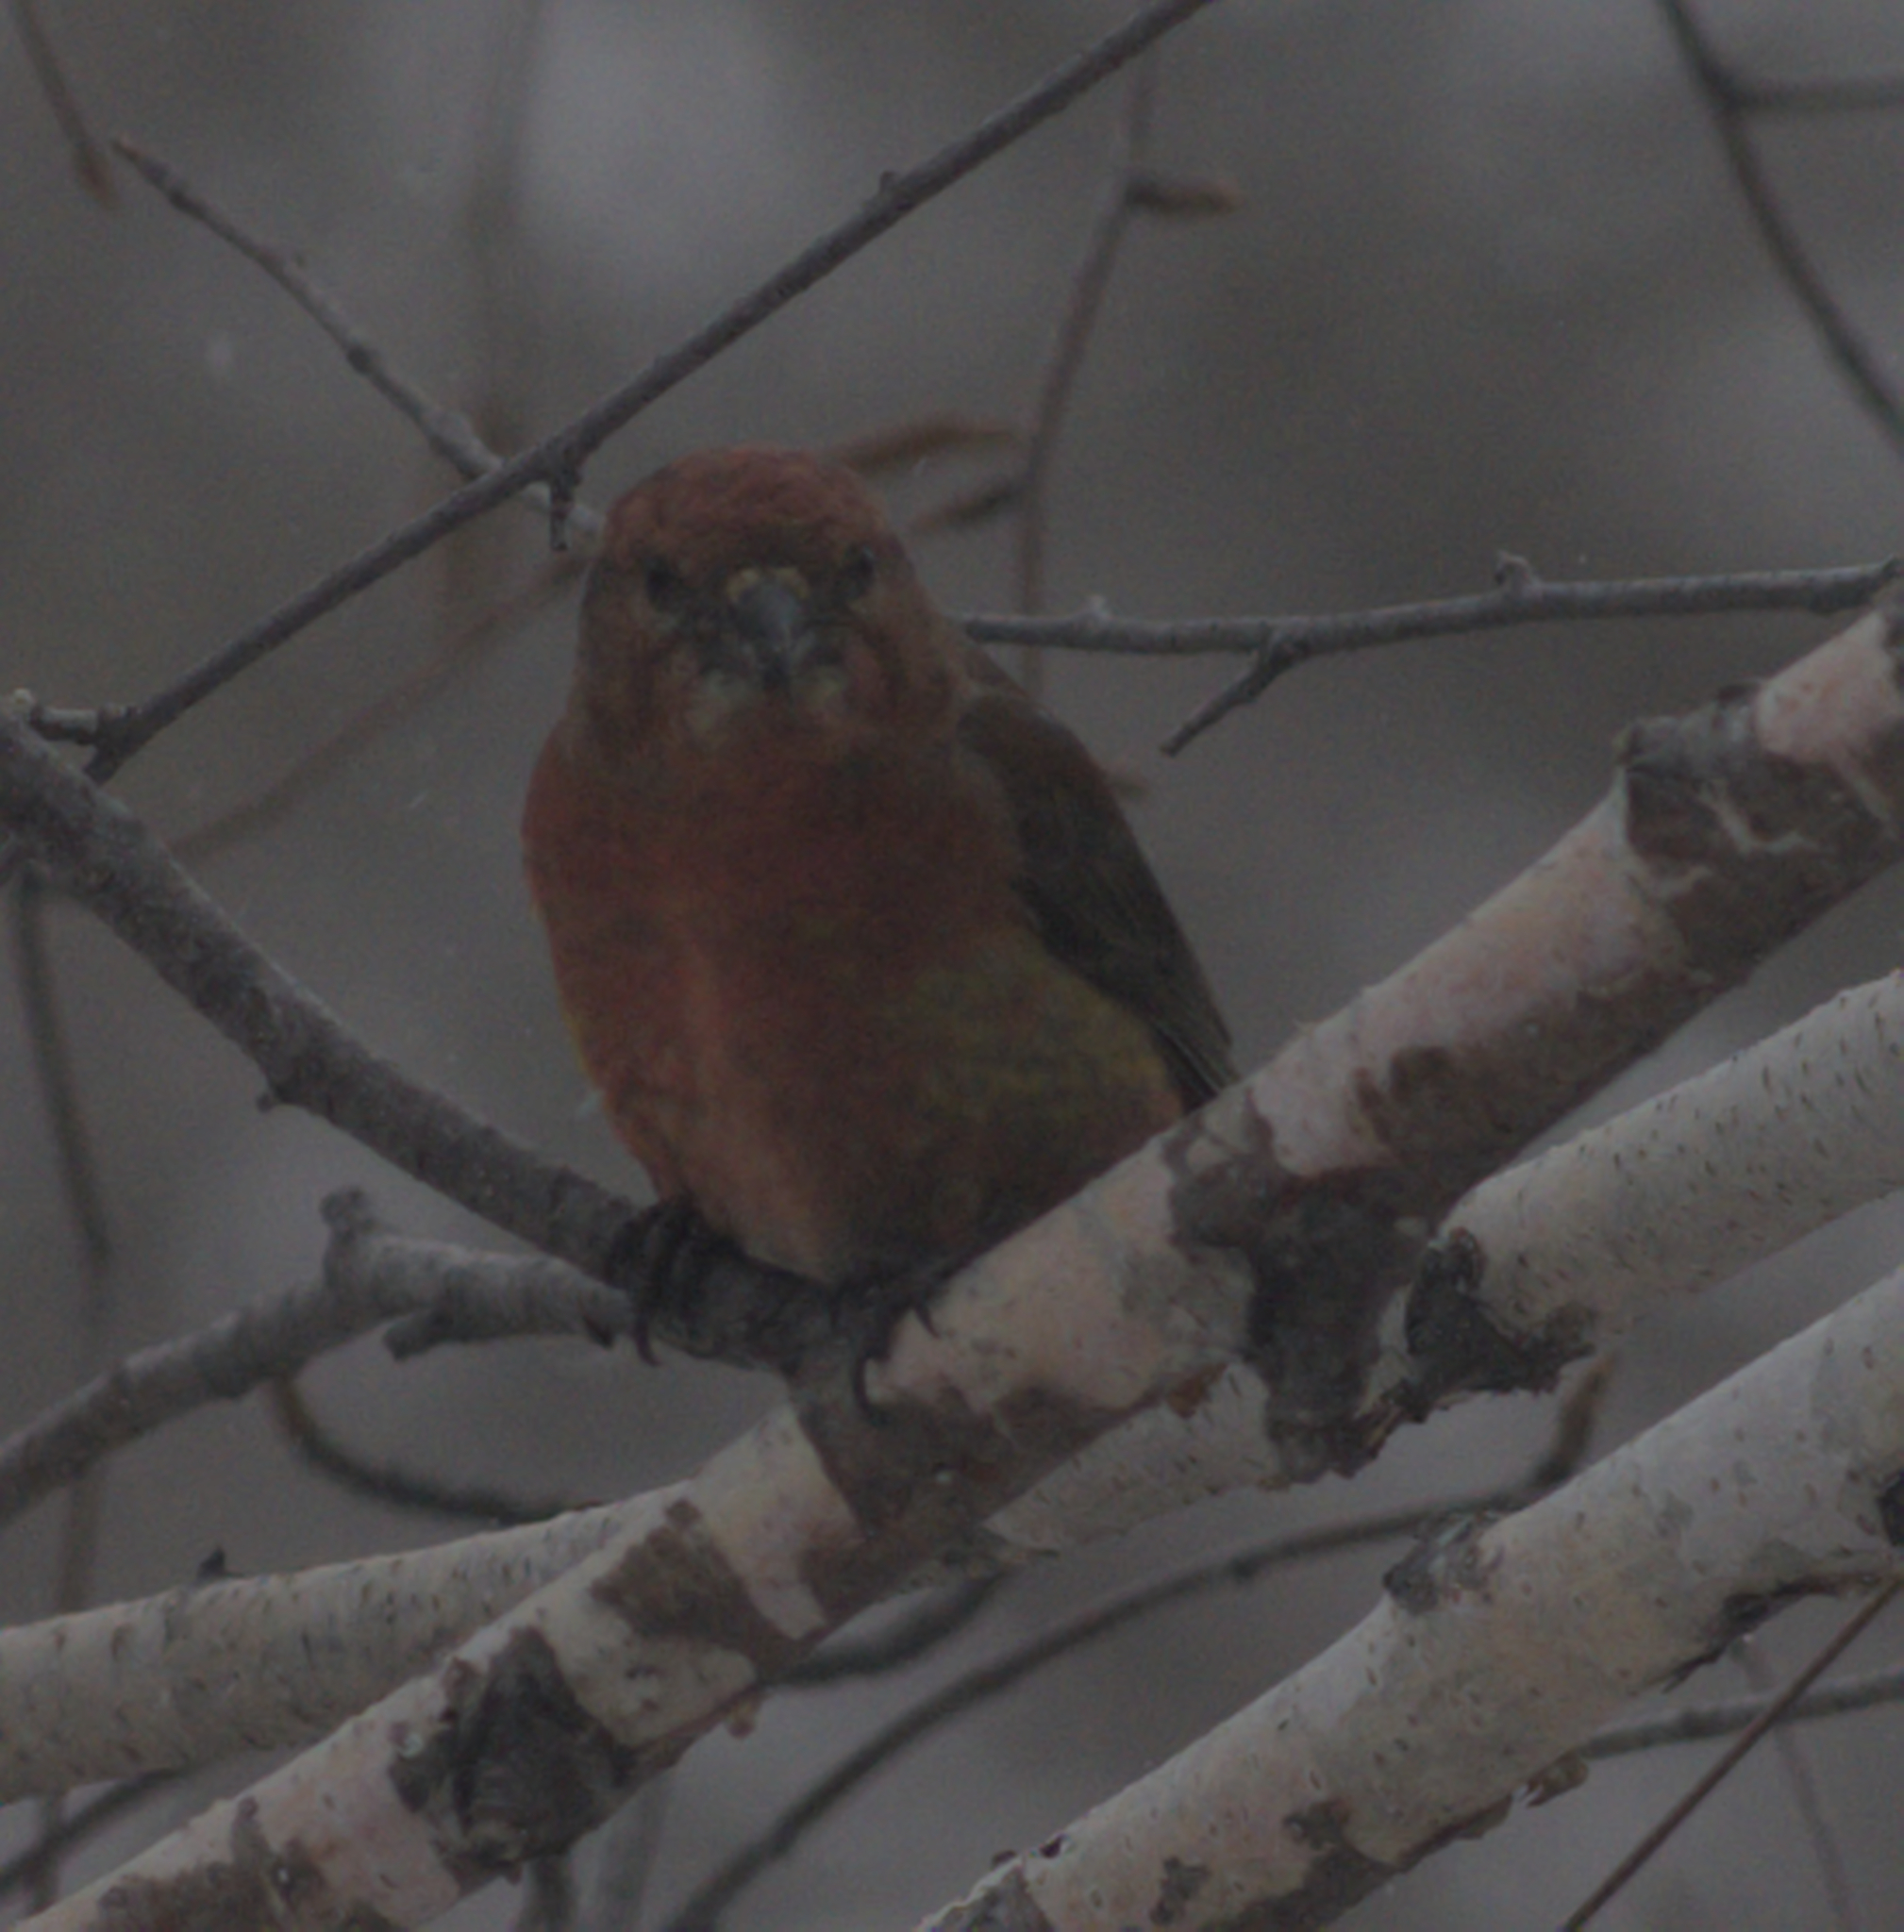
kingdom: Animalia
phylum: Chordata
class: Aves
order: Passeriformes
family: Fringillidae
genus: Loxia
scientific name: Loxia curvirostra
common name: Red crossbill
